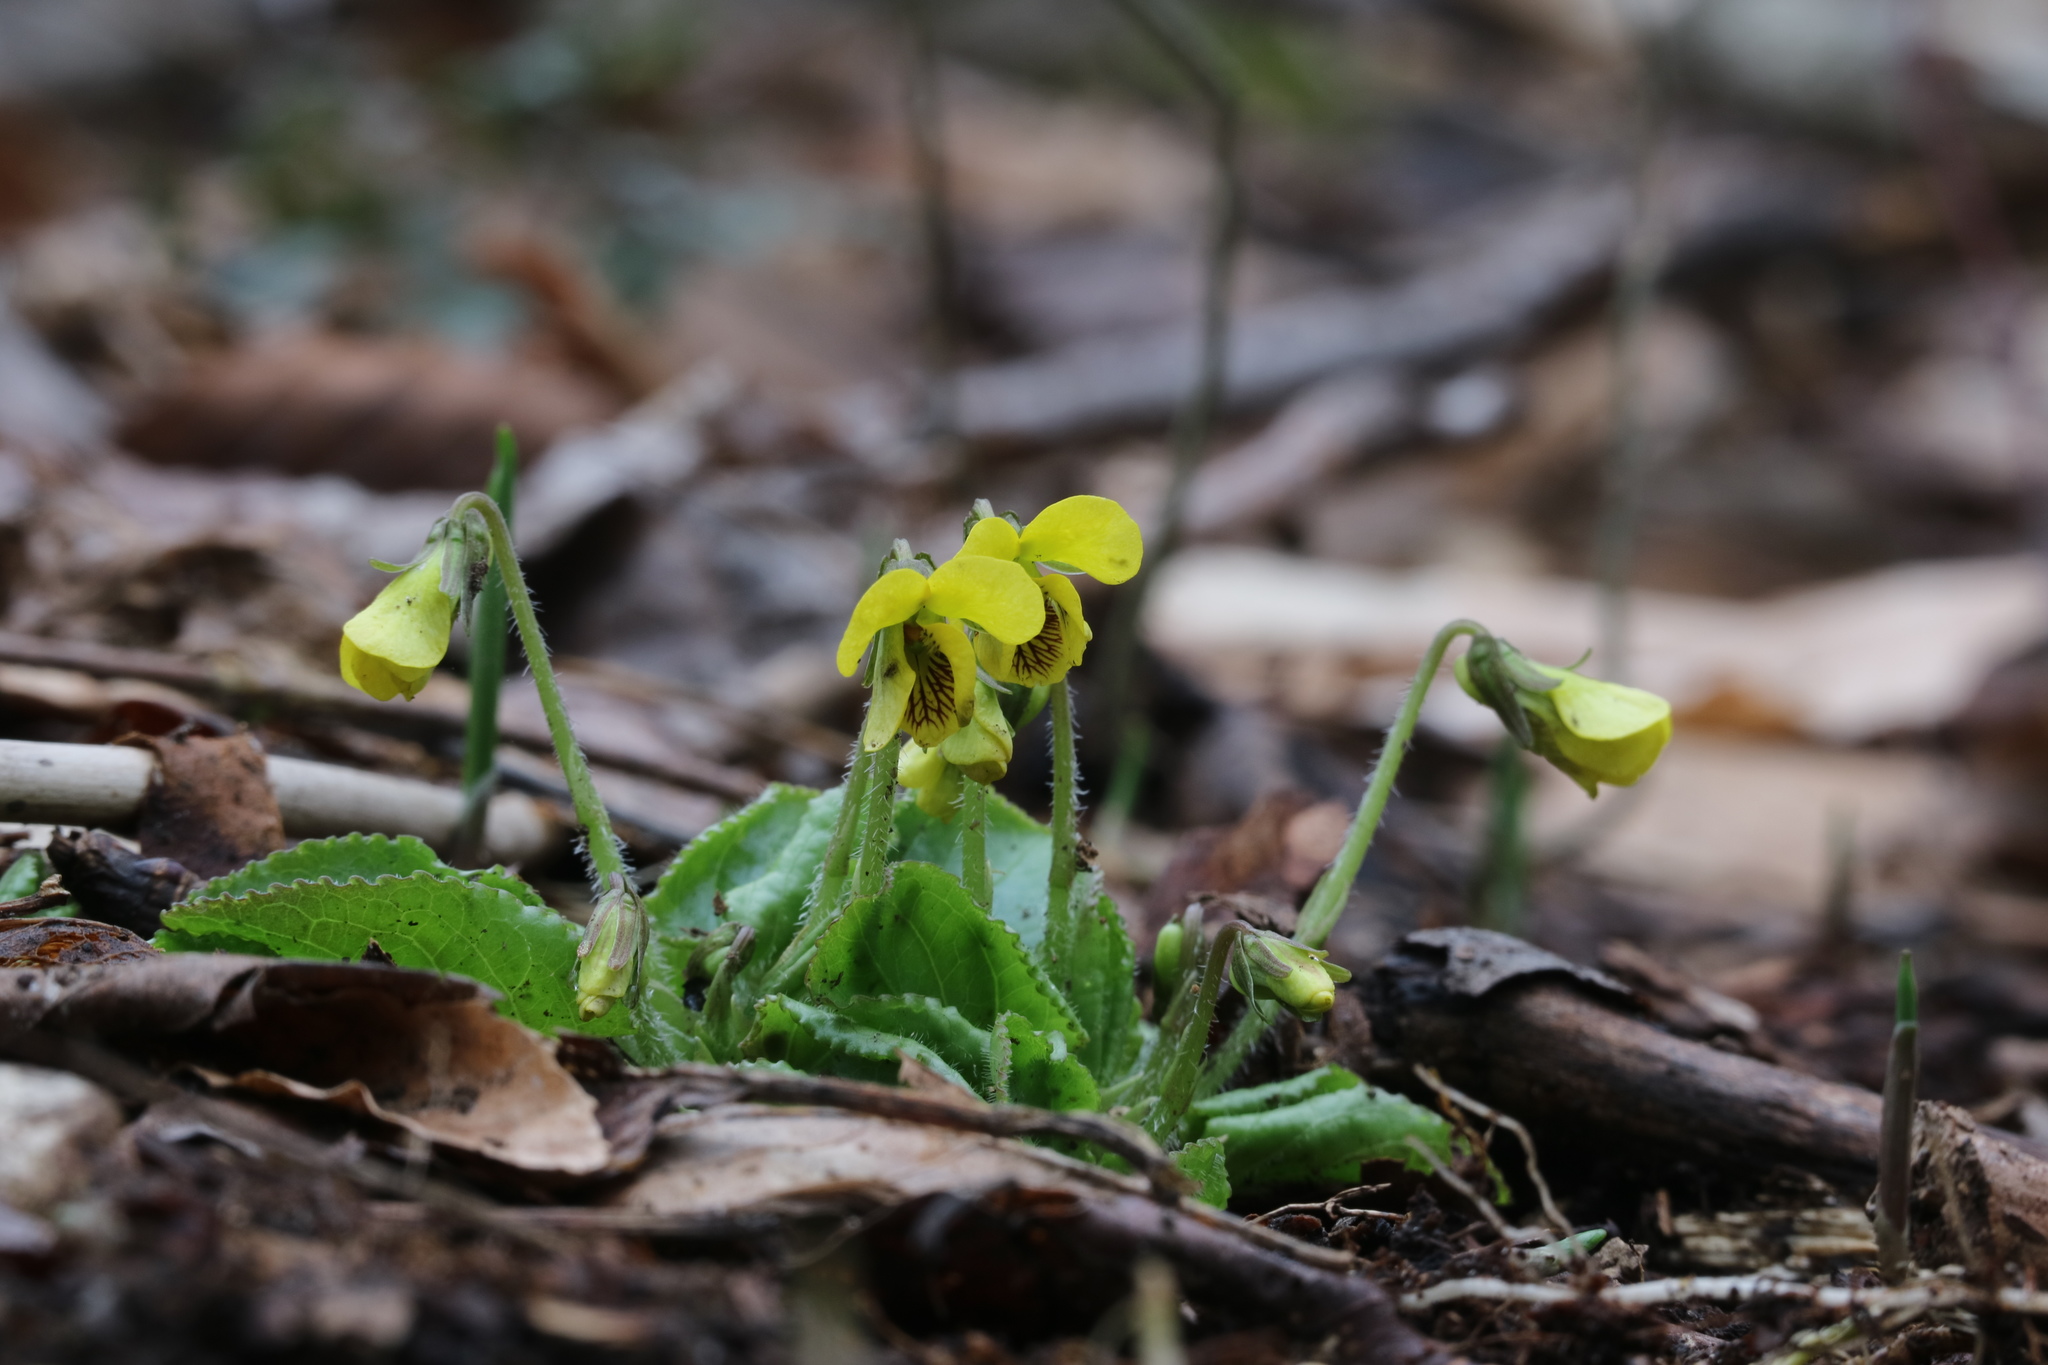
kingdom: Plantae
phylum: Tracheophyta
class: Magnoliopsida
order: Malpighiales
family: Violaceae
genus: Viola
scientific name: Viola rotundifolia
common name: Early yellow violet
